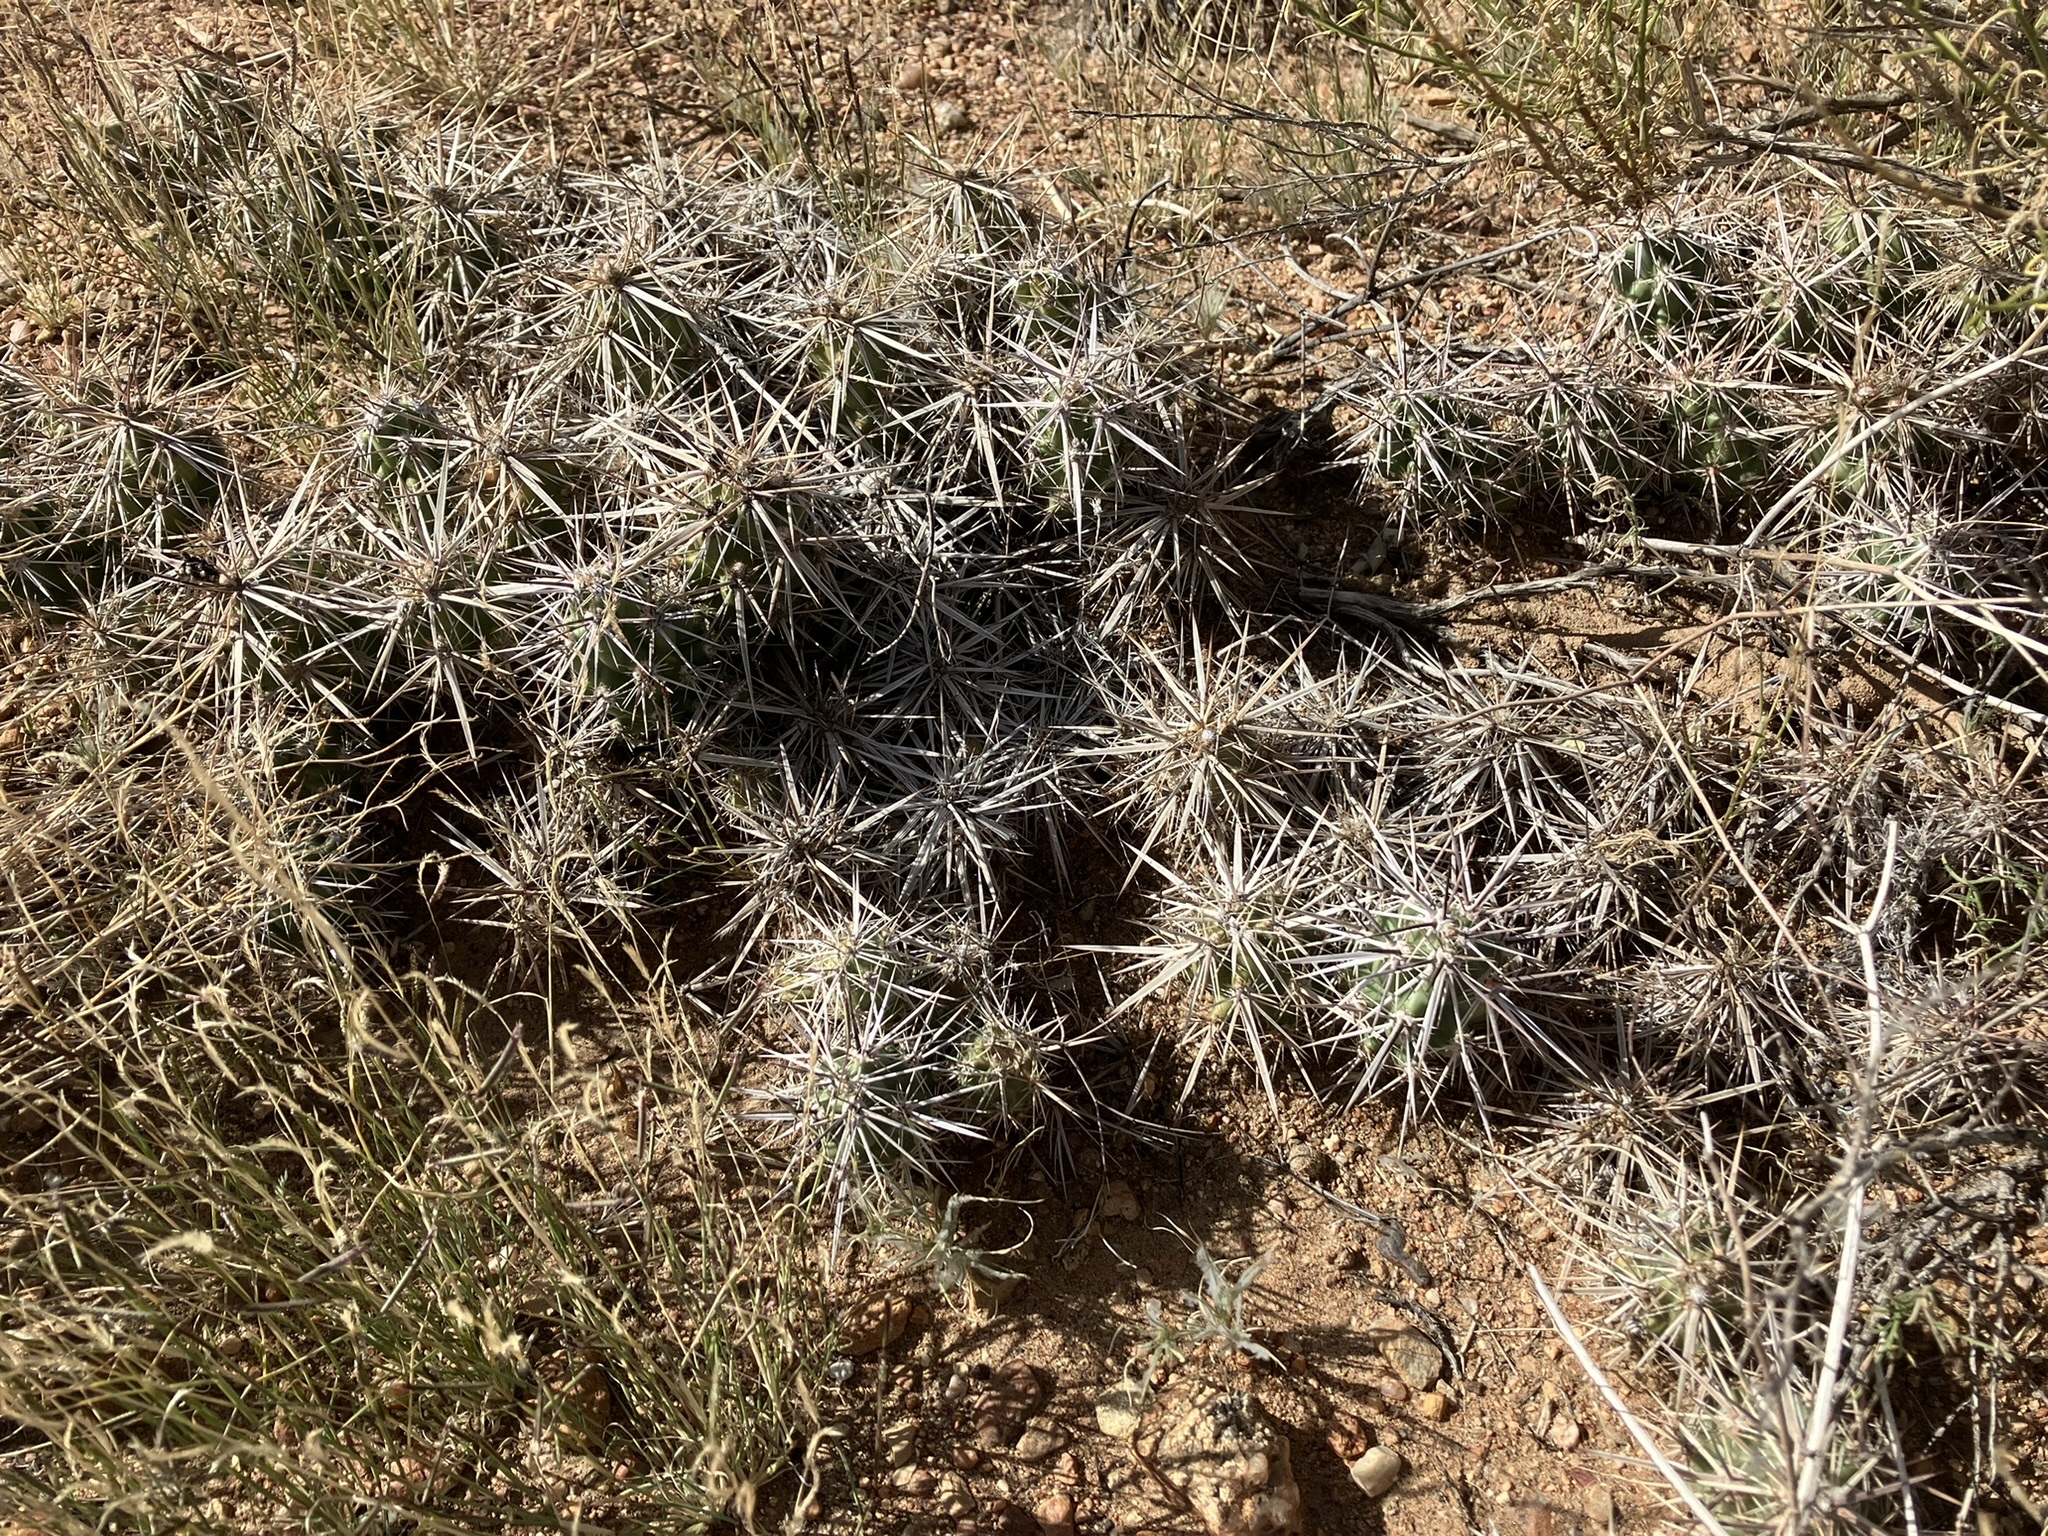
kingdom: Plantae
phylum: Tracheophyta
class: Magnoliopsida
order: Caryophyllales
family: Cactaceae
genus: Grusonia
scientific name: Grusonia parishiorum
